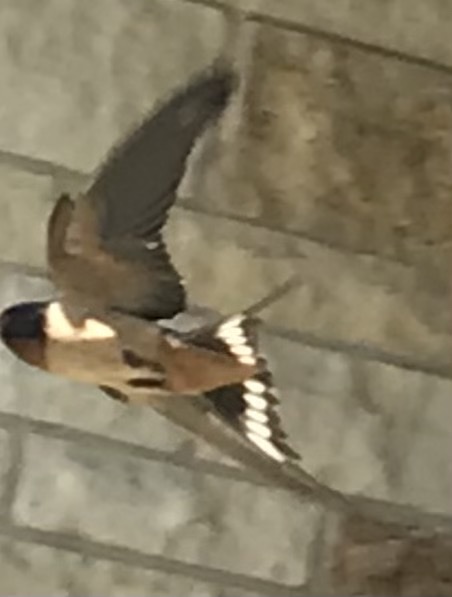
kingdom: Animalia
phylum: Chordata
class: Aves
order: Passeriformes
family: Hirundinidae
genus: Hirundo
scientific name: Hirundo rustica
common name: Barn swallow
